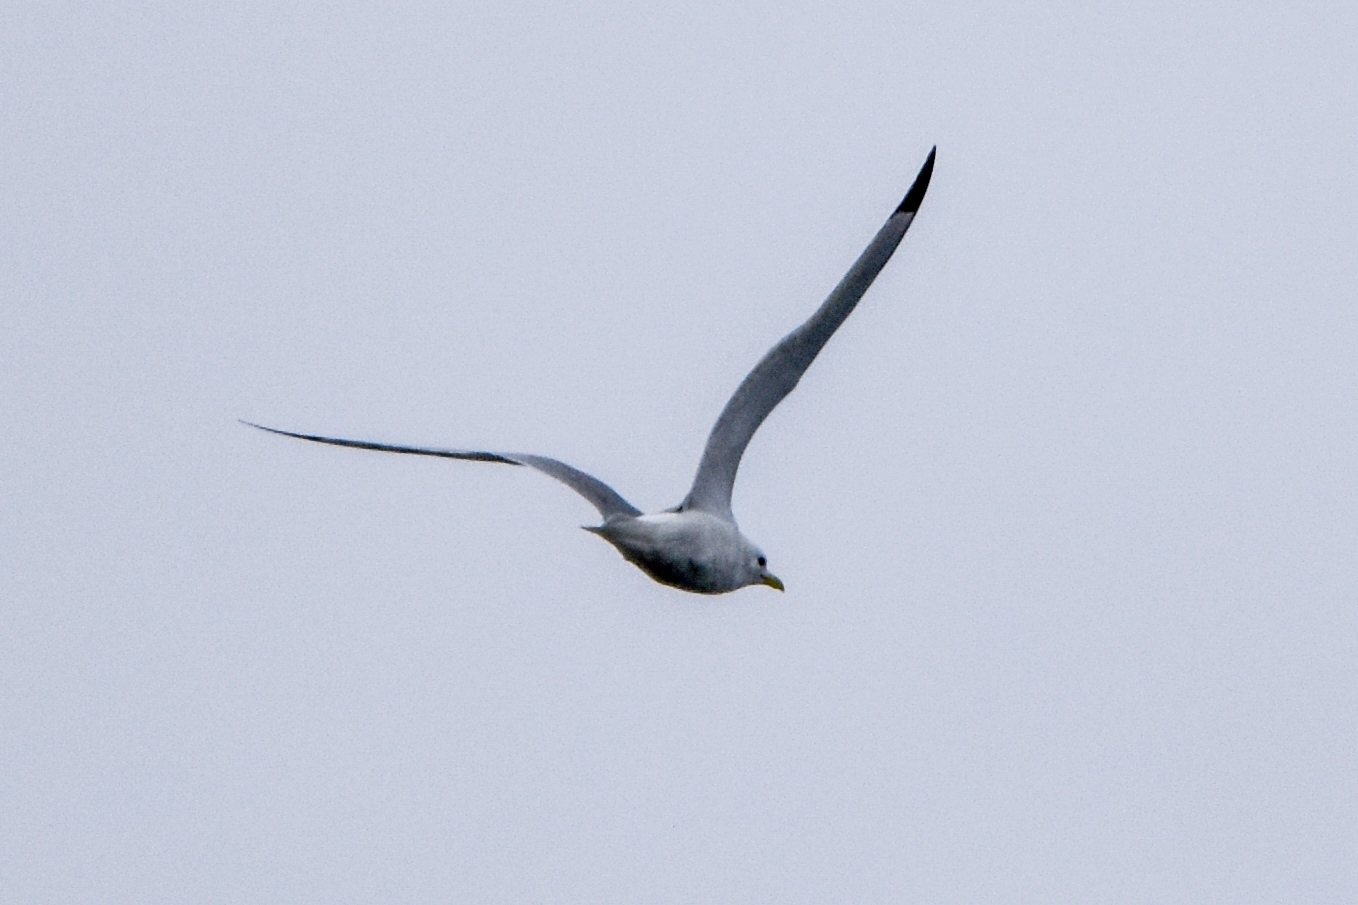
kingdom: Animalia
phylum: Chordata
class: Aves
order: Charadriiformes
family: Laridae
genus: Rissa
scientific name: Rissa tridactyla
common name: Black-legged kittiwake
